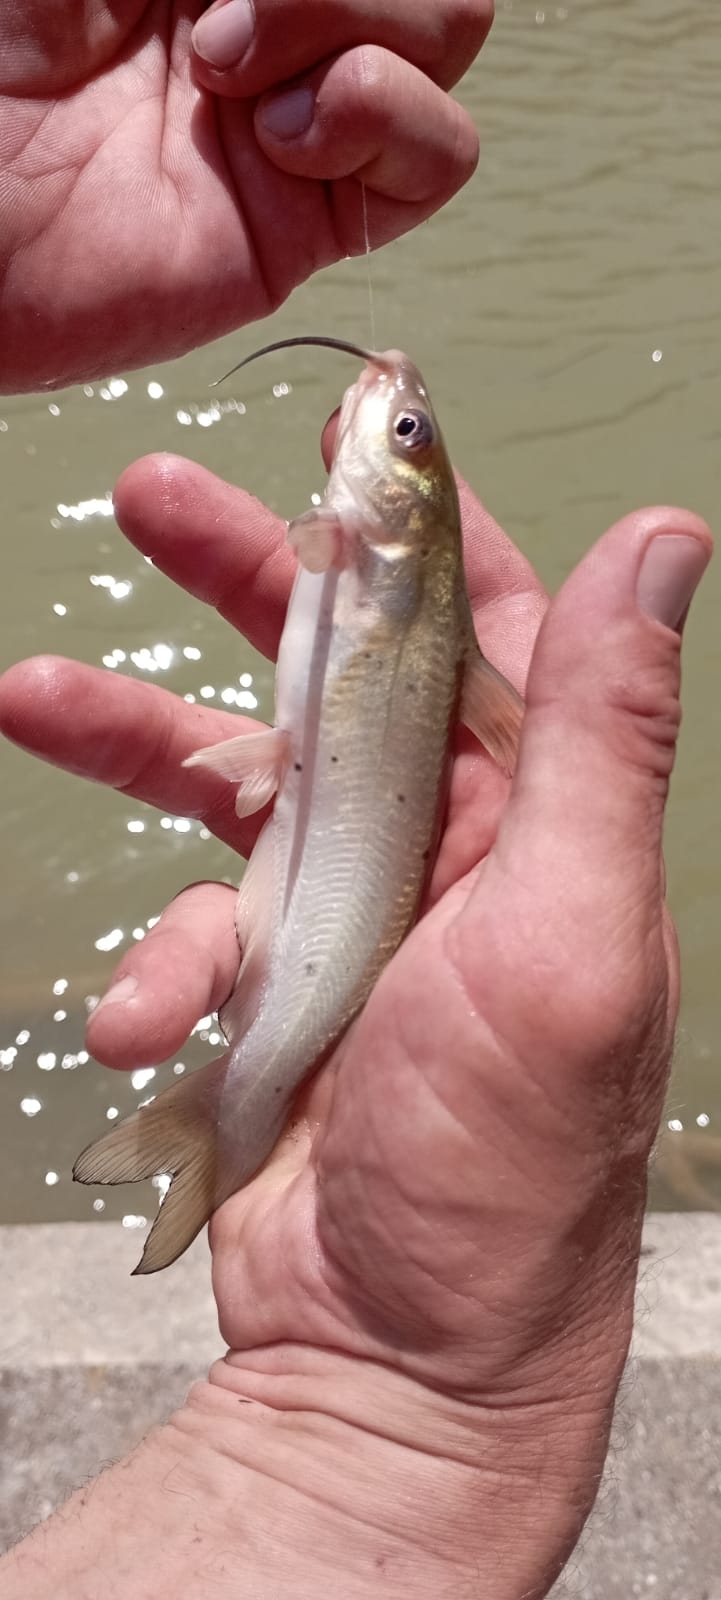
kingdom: Animalia
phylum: Chordata
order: Siluriformes
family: Ictaluridae
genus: Ictalurus
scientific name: Ictalurus punctatus
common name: Channel catfish
